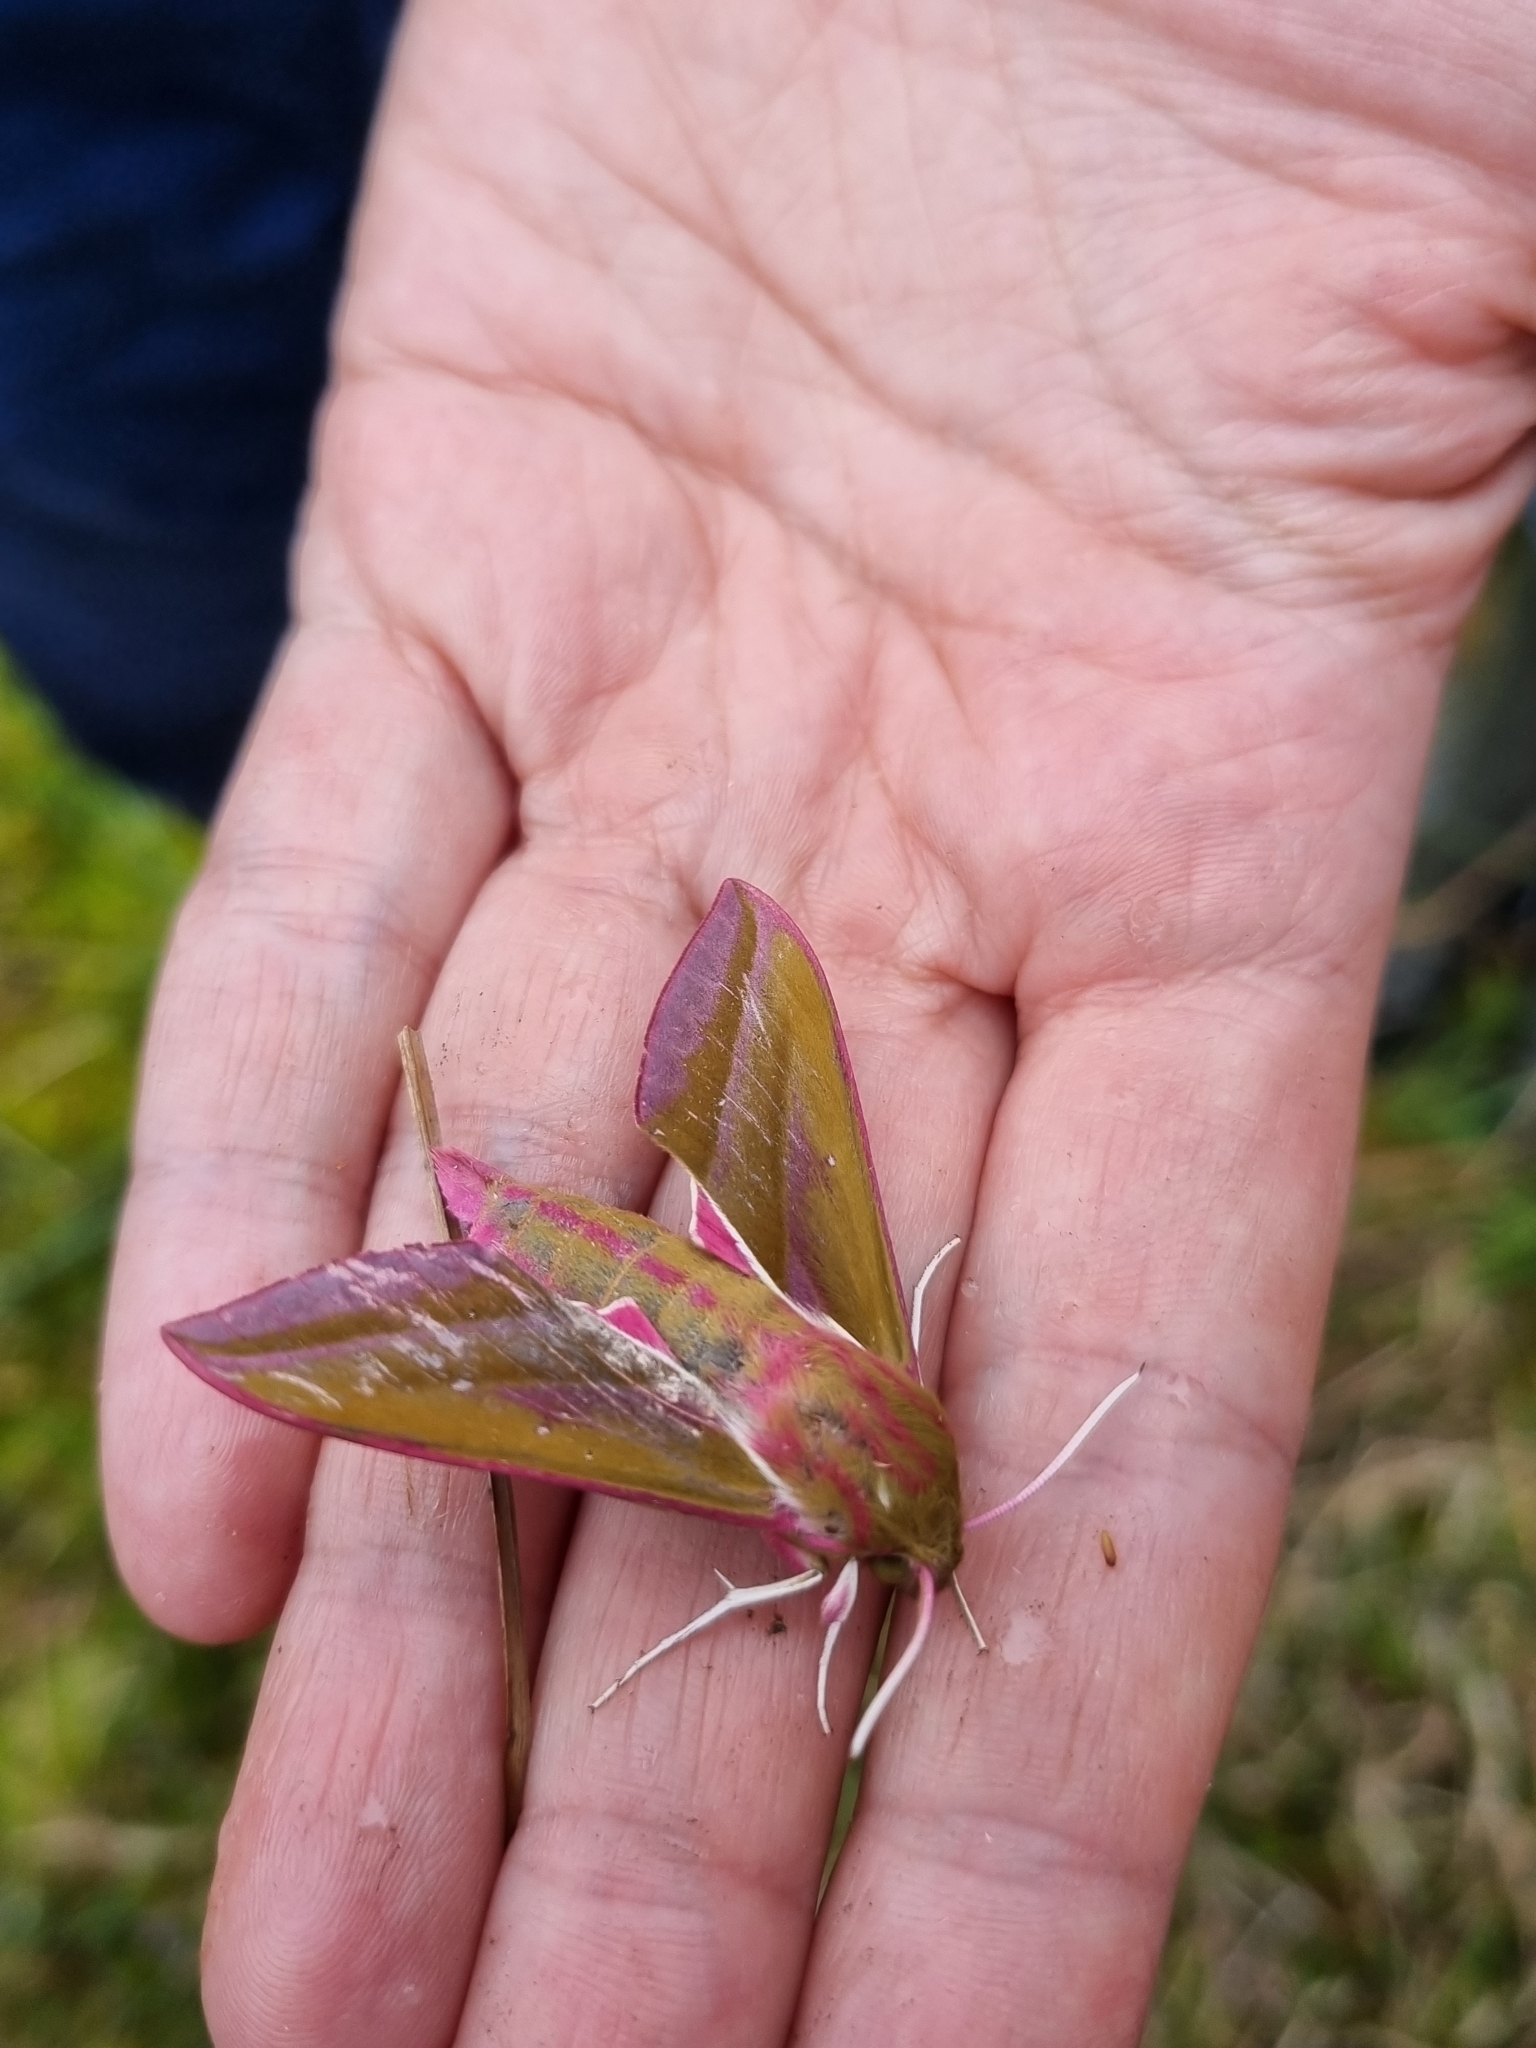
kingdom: Animalia
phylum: Arthropoda
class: Insecta
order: Lepidoptera
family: Sphingidae
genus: Deilephila
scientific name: Deilephila elpenor
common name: Elephant hawk-moth
